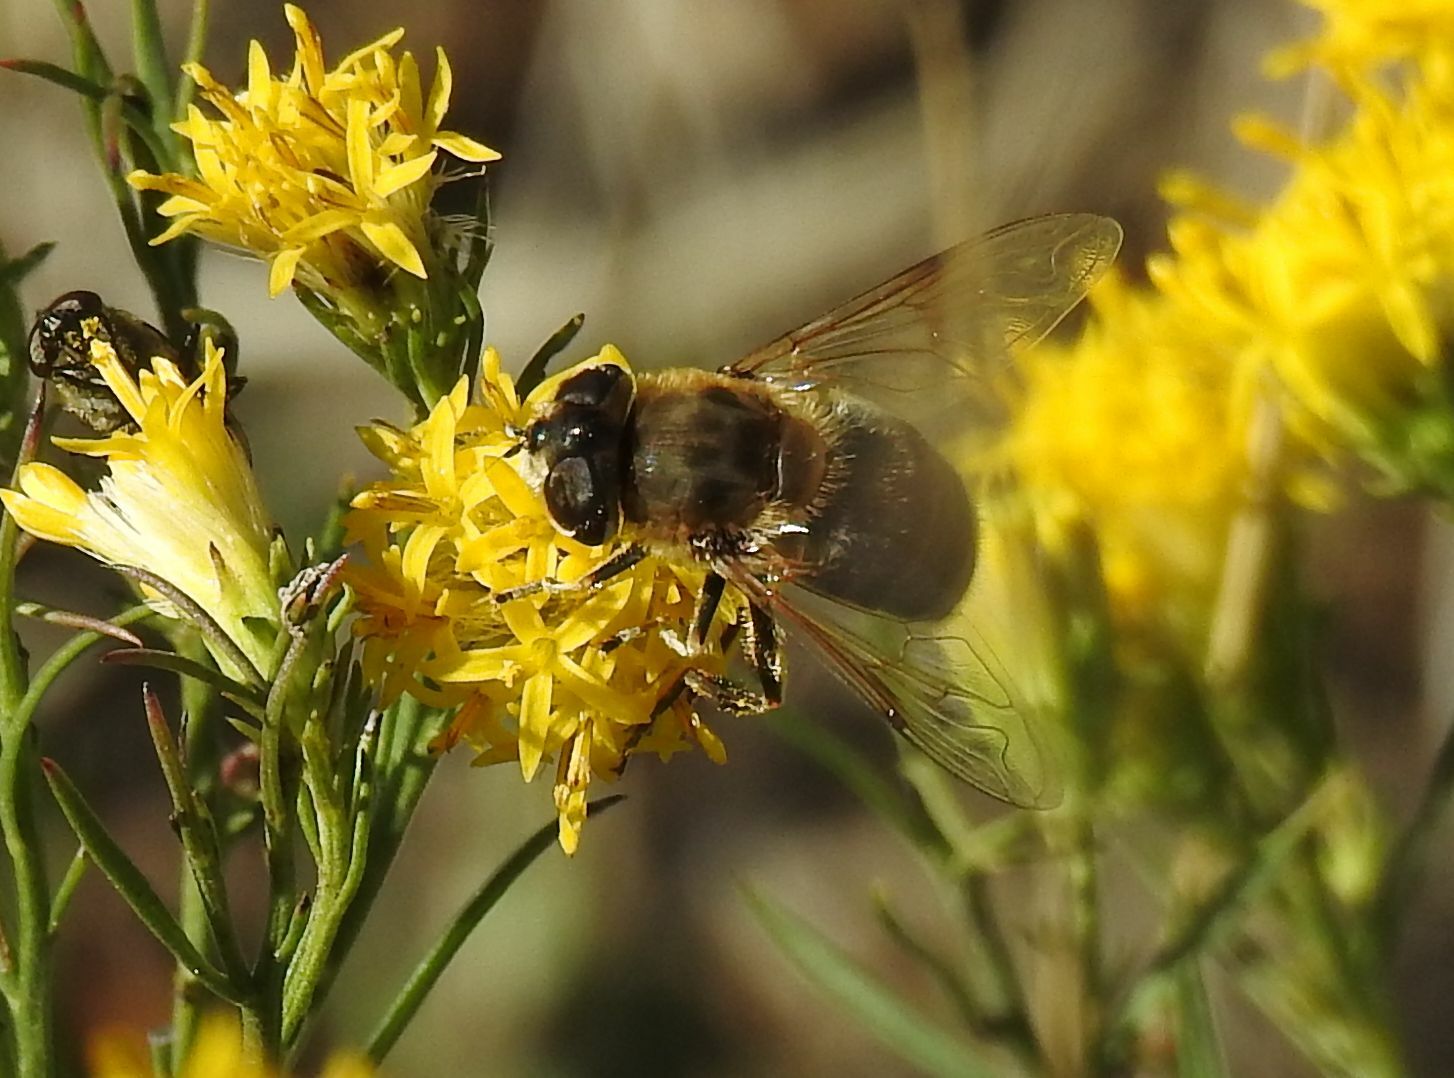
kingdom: Animalia
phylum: Arthropoda
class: Insecta
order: Diptera
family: Syrphidae
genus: Eristalis
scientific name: Eristalis tenax
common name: Drone fly
